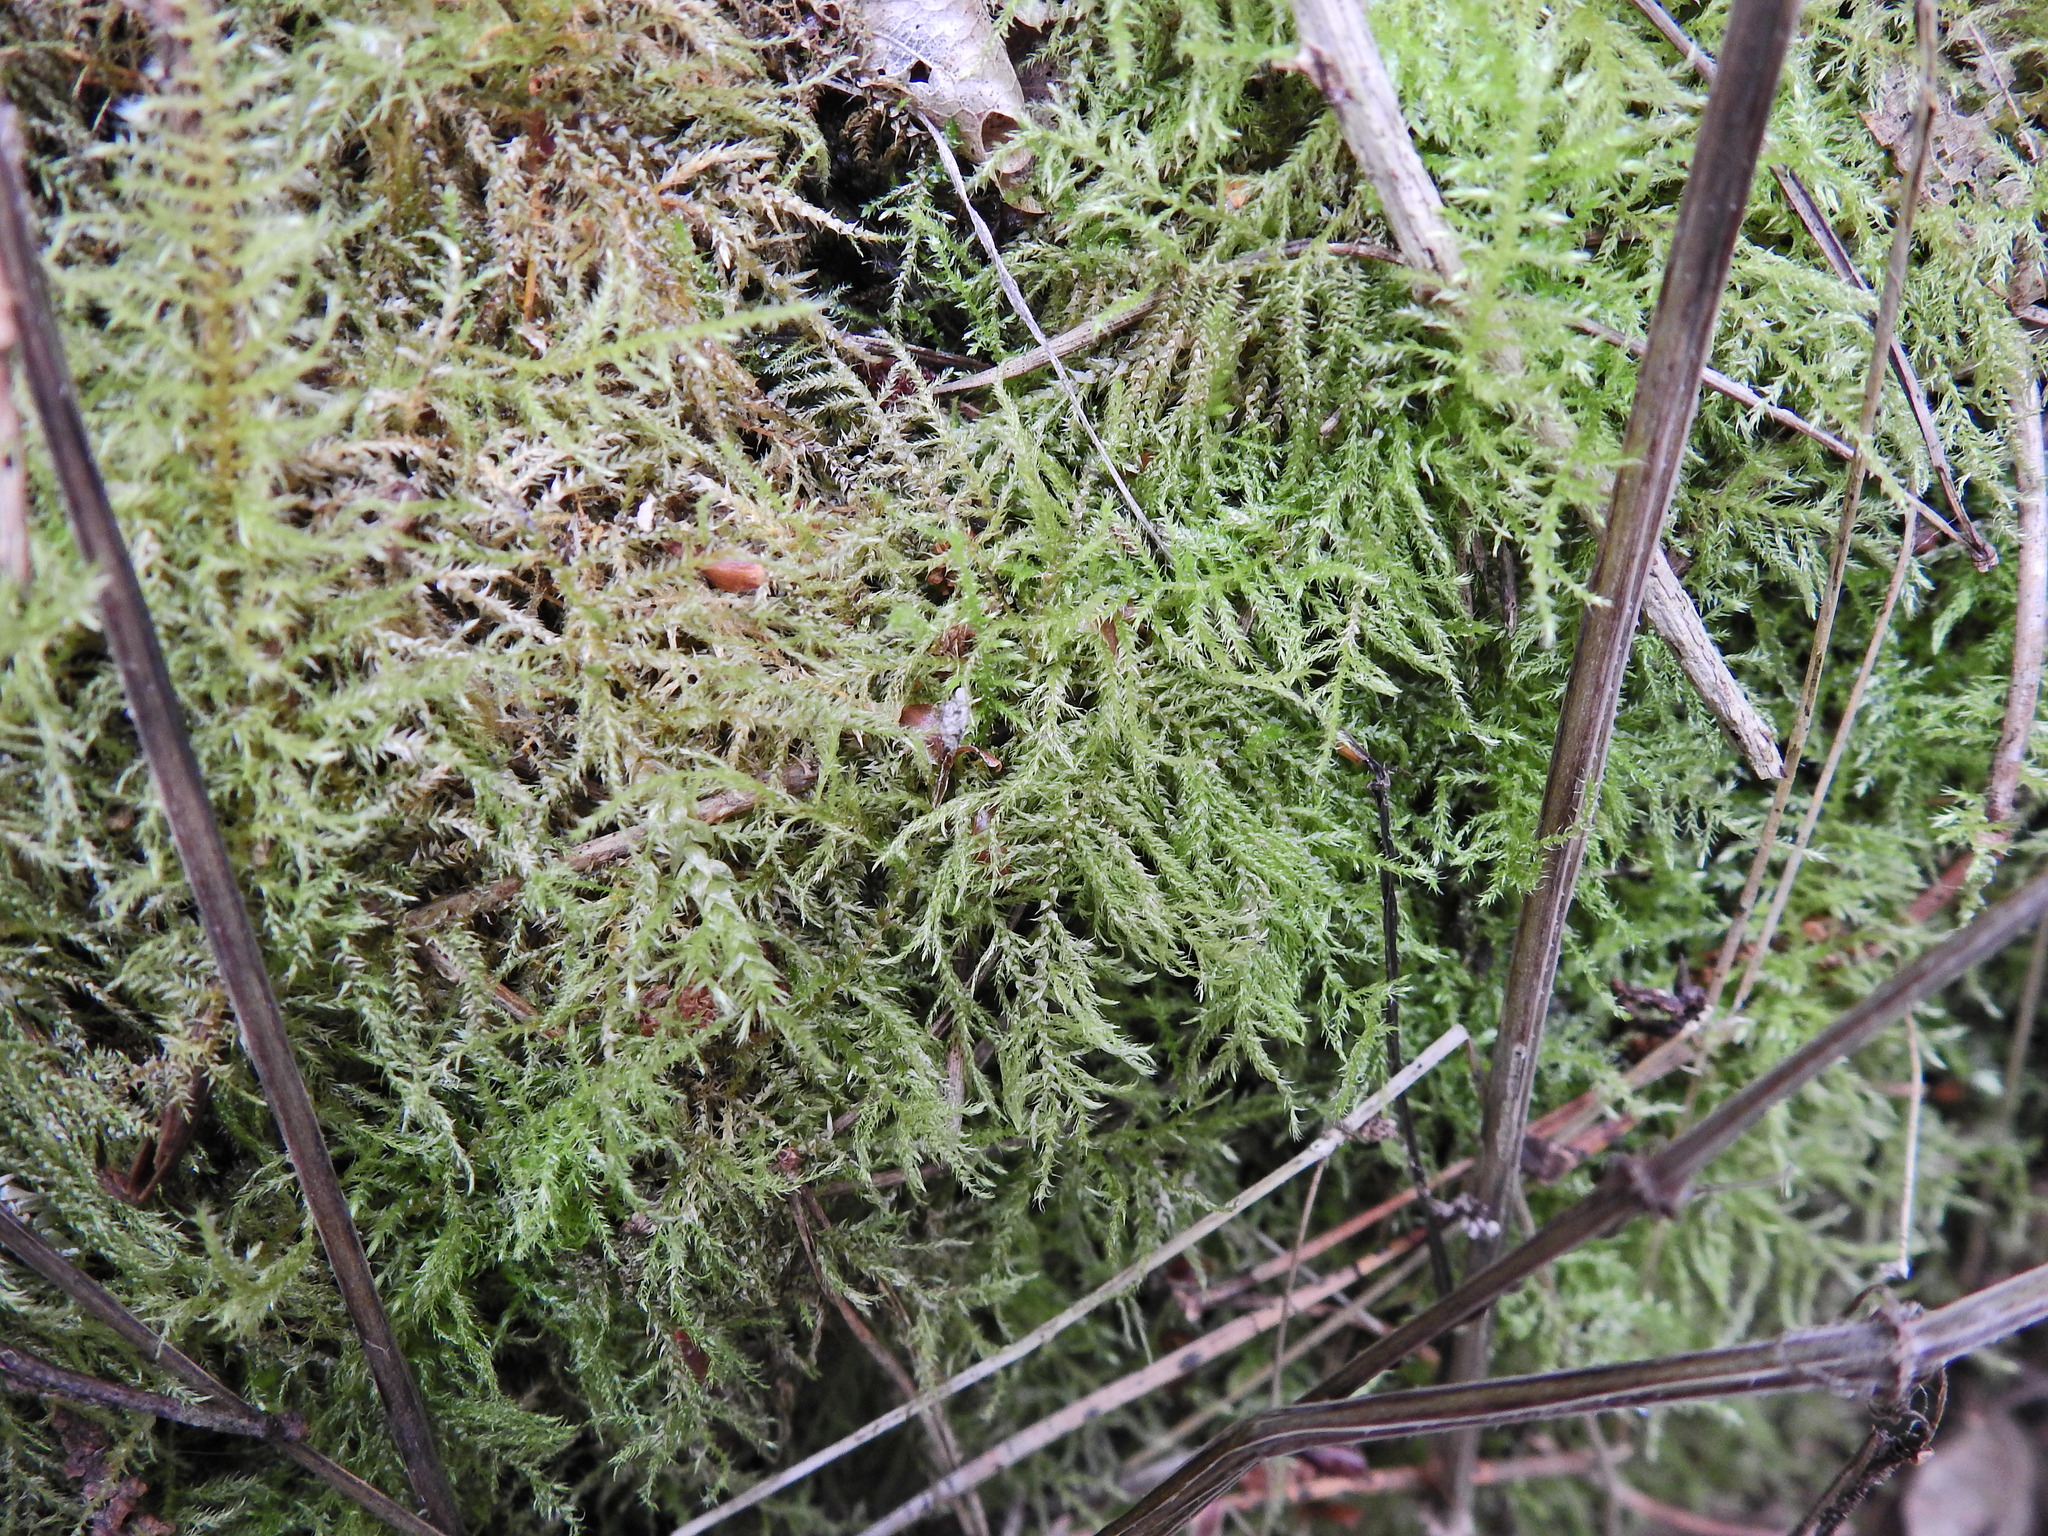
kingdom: Plantae
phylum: Bryophyta
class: Bryopsida
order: Hypnales
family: Brachytheciaceae
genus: Kindbergia
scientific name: Kindbergia praelonga
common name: Slender beaked moss
